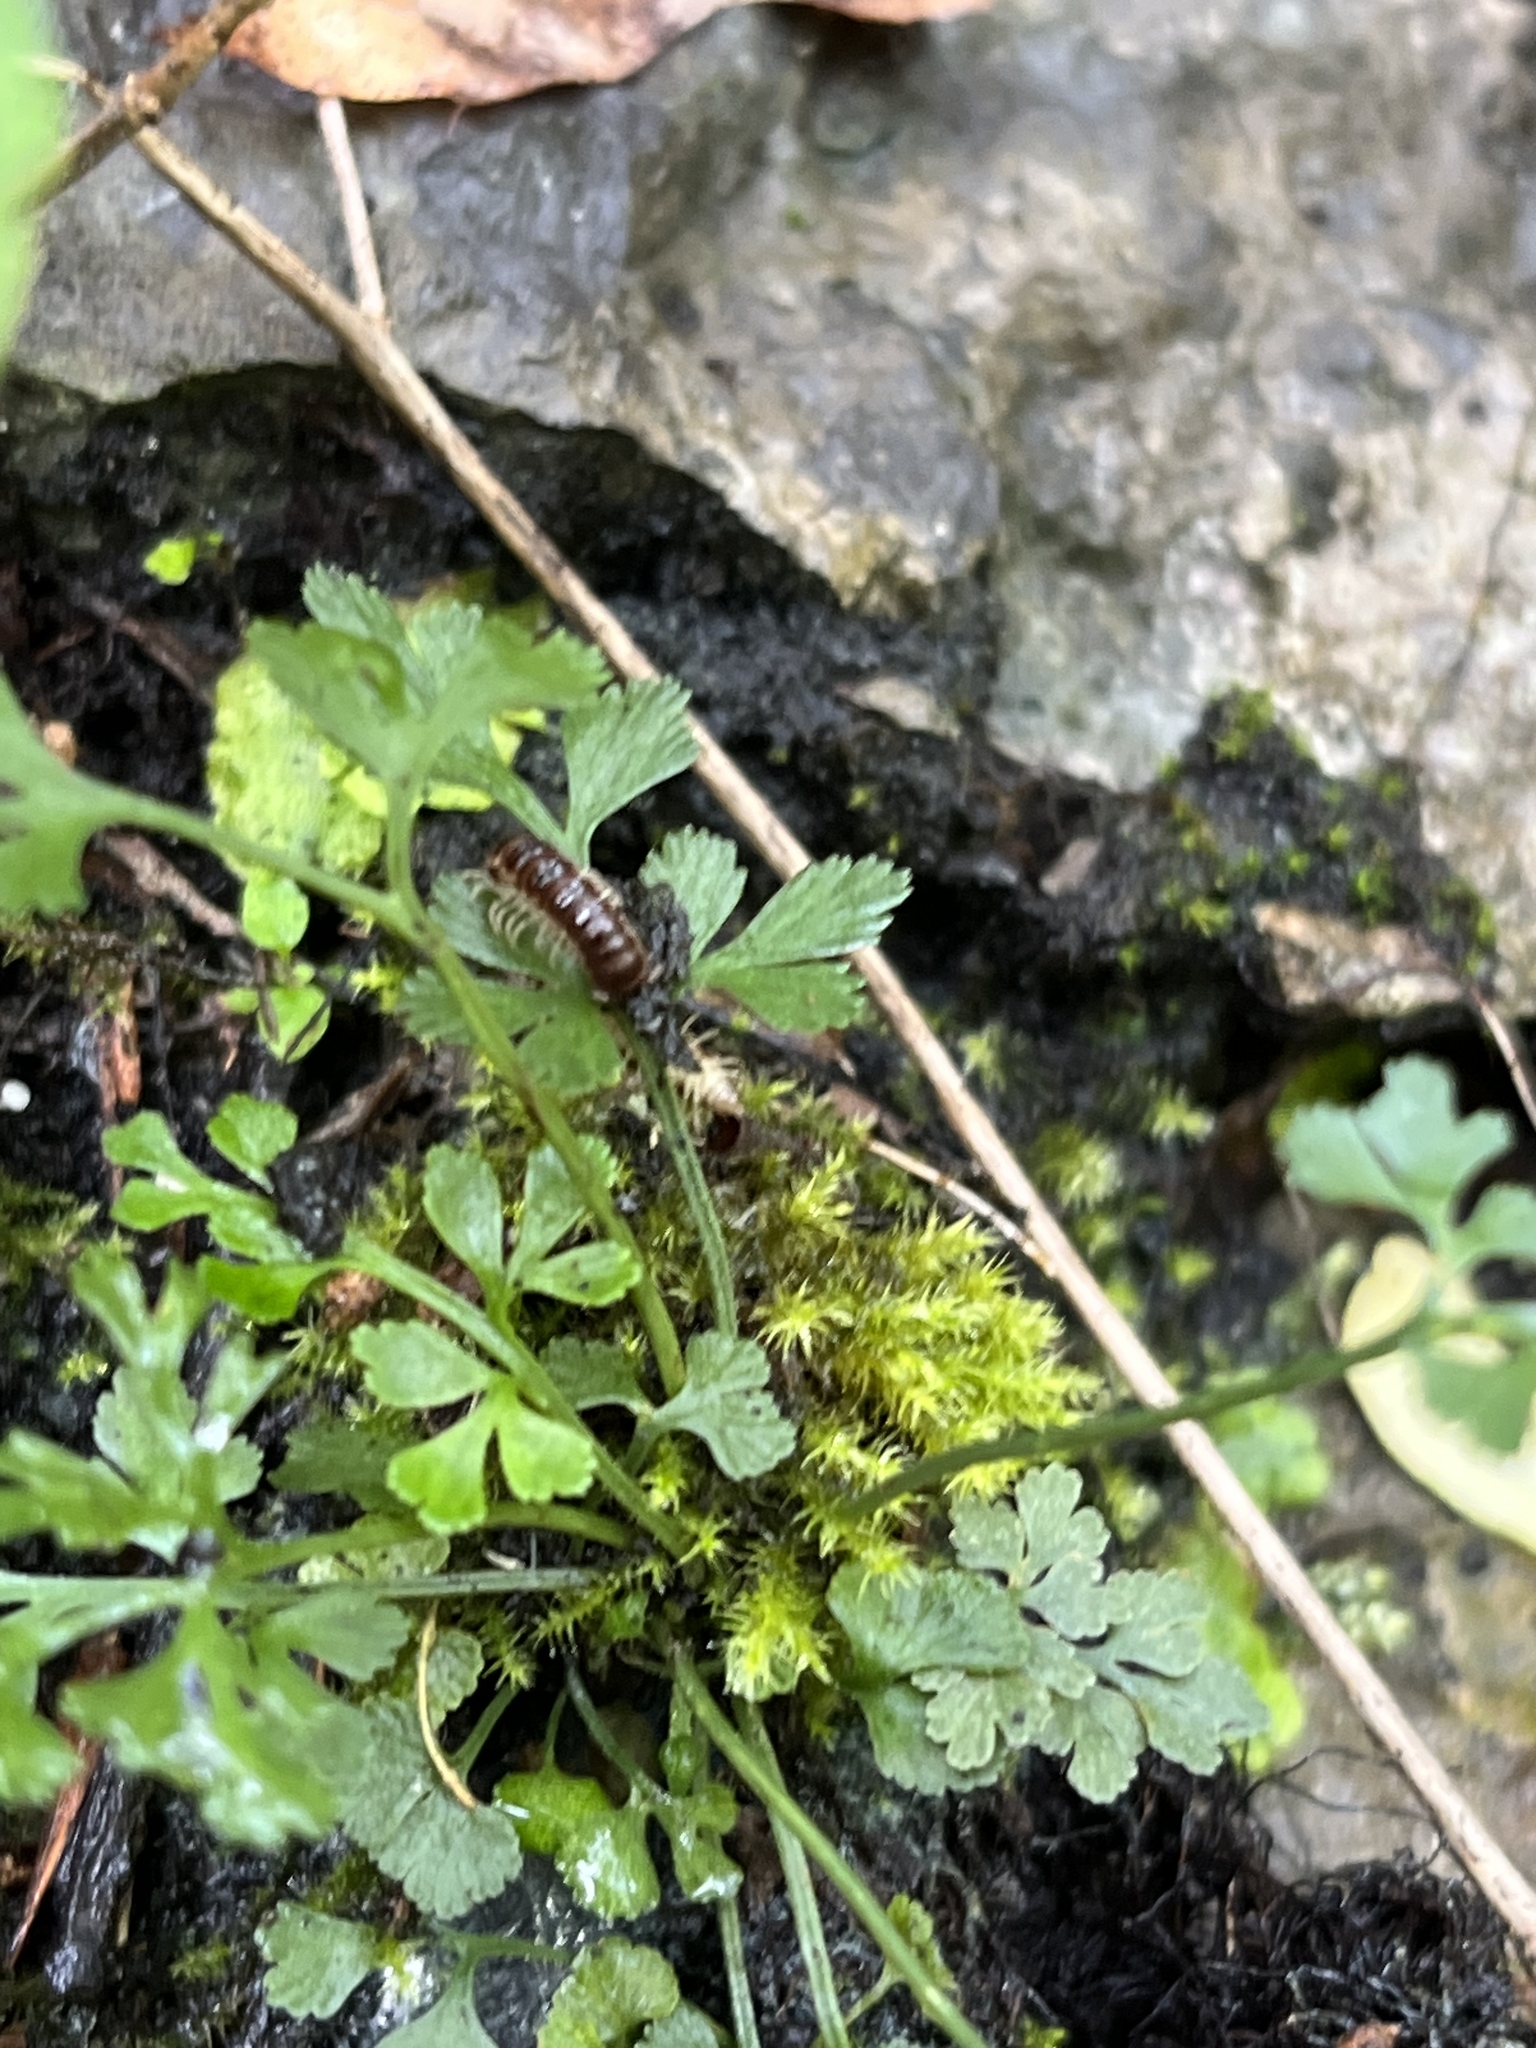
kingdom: Plantae
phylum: Tracheophyta
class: Polypodiopsida
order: Polypodiales
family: Aspleniaceae
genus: Asplenium
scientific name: Asplenium ruta-muraria
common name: Wall-rue
